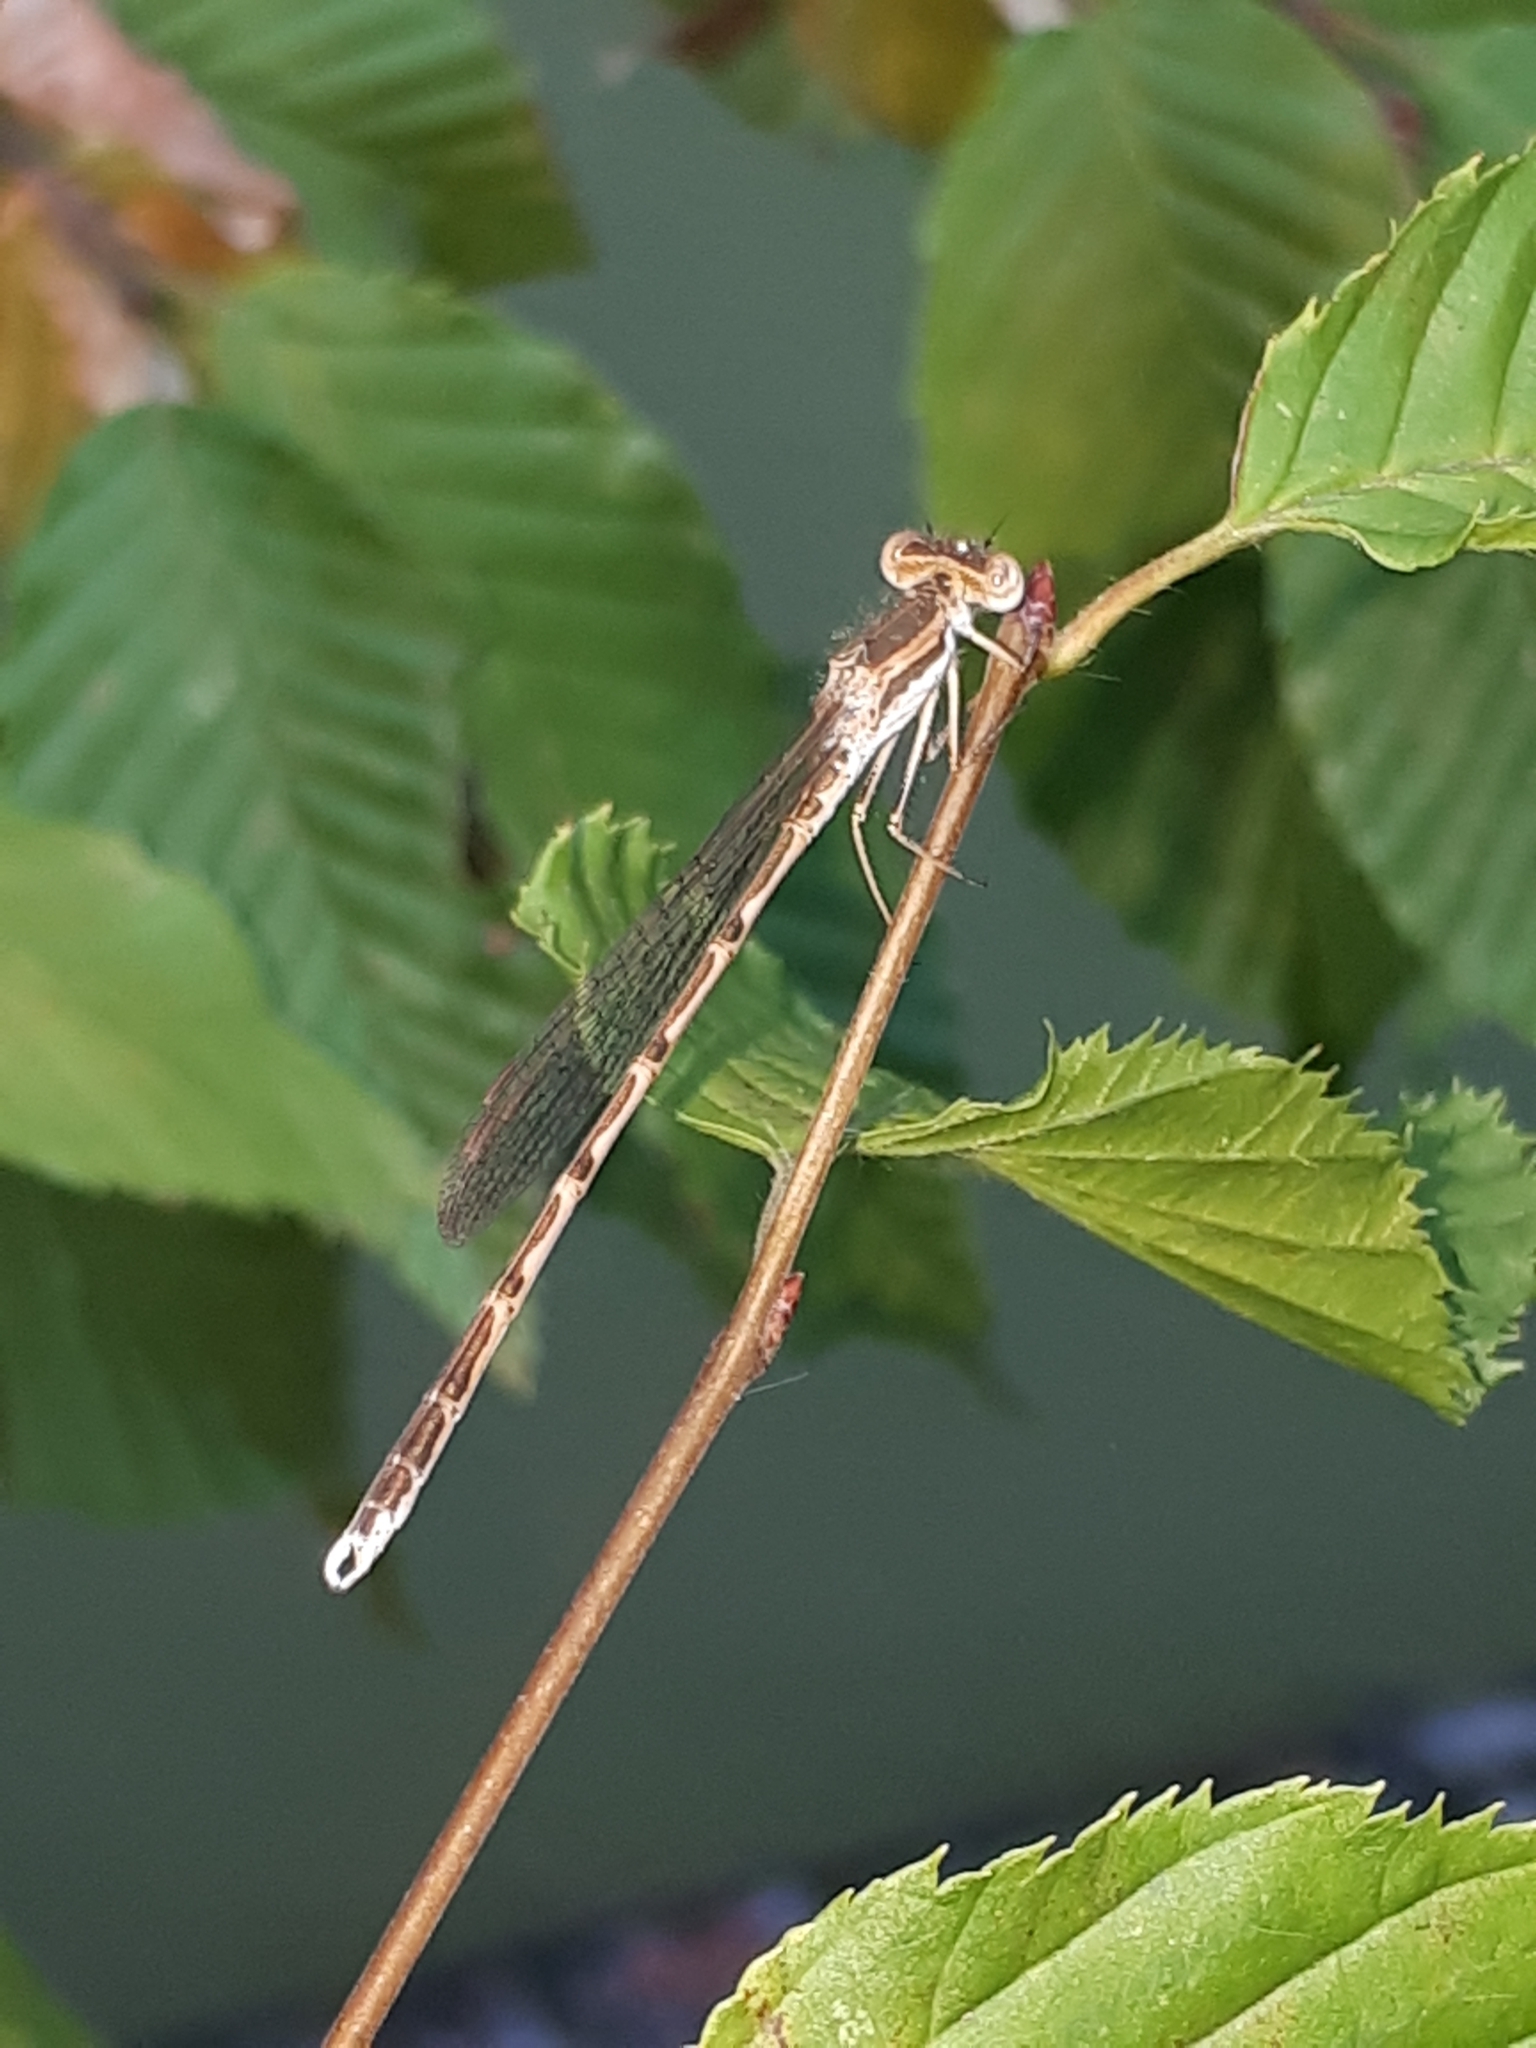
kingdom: Animalia
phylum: Arthropoda
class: Insecta
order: Odonata
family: Lestidae
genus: Sympecma
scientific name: Sympecma fusca
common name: Common winter damsel
